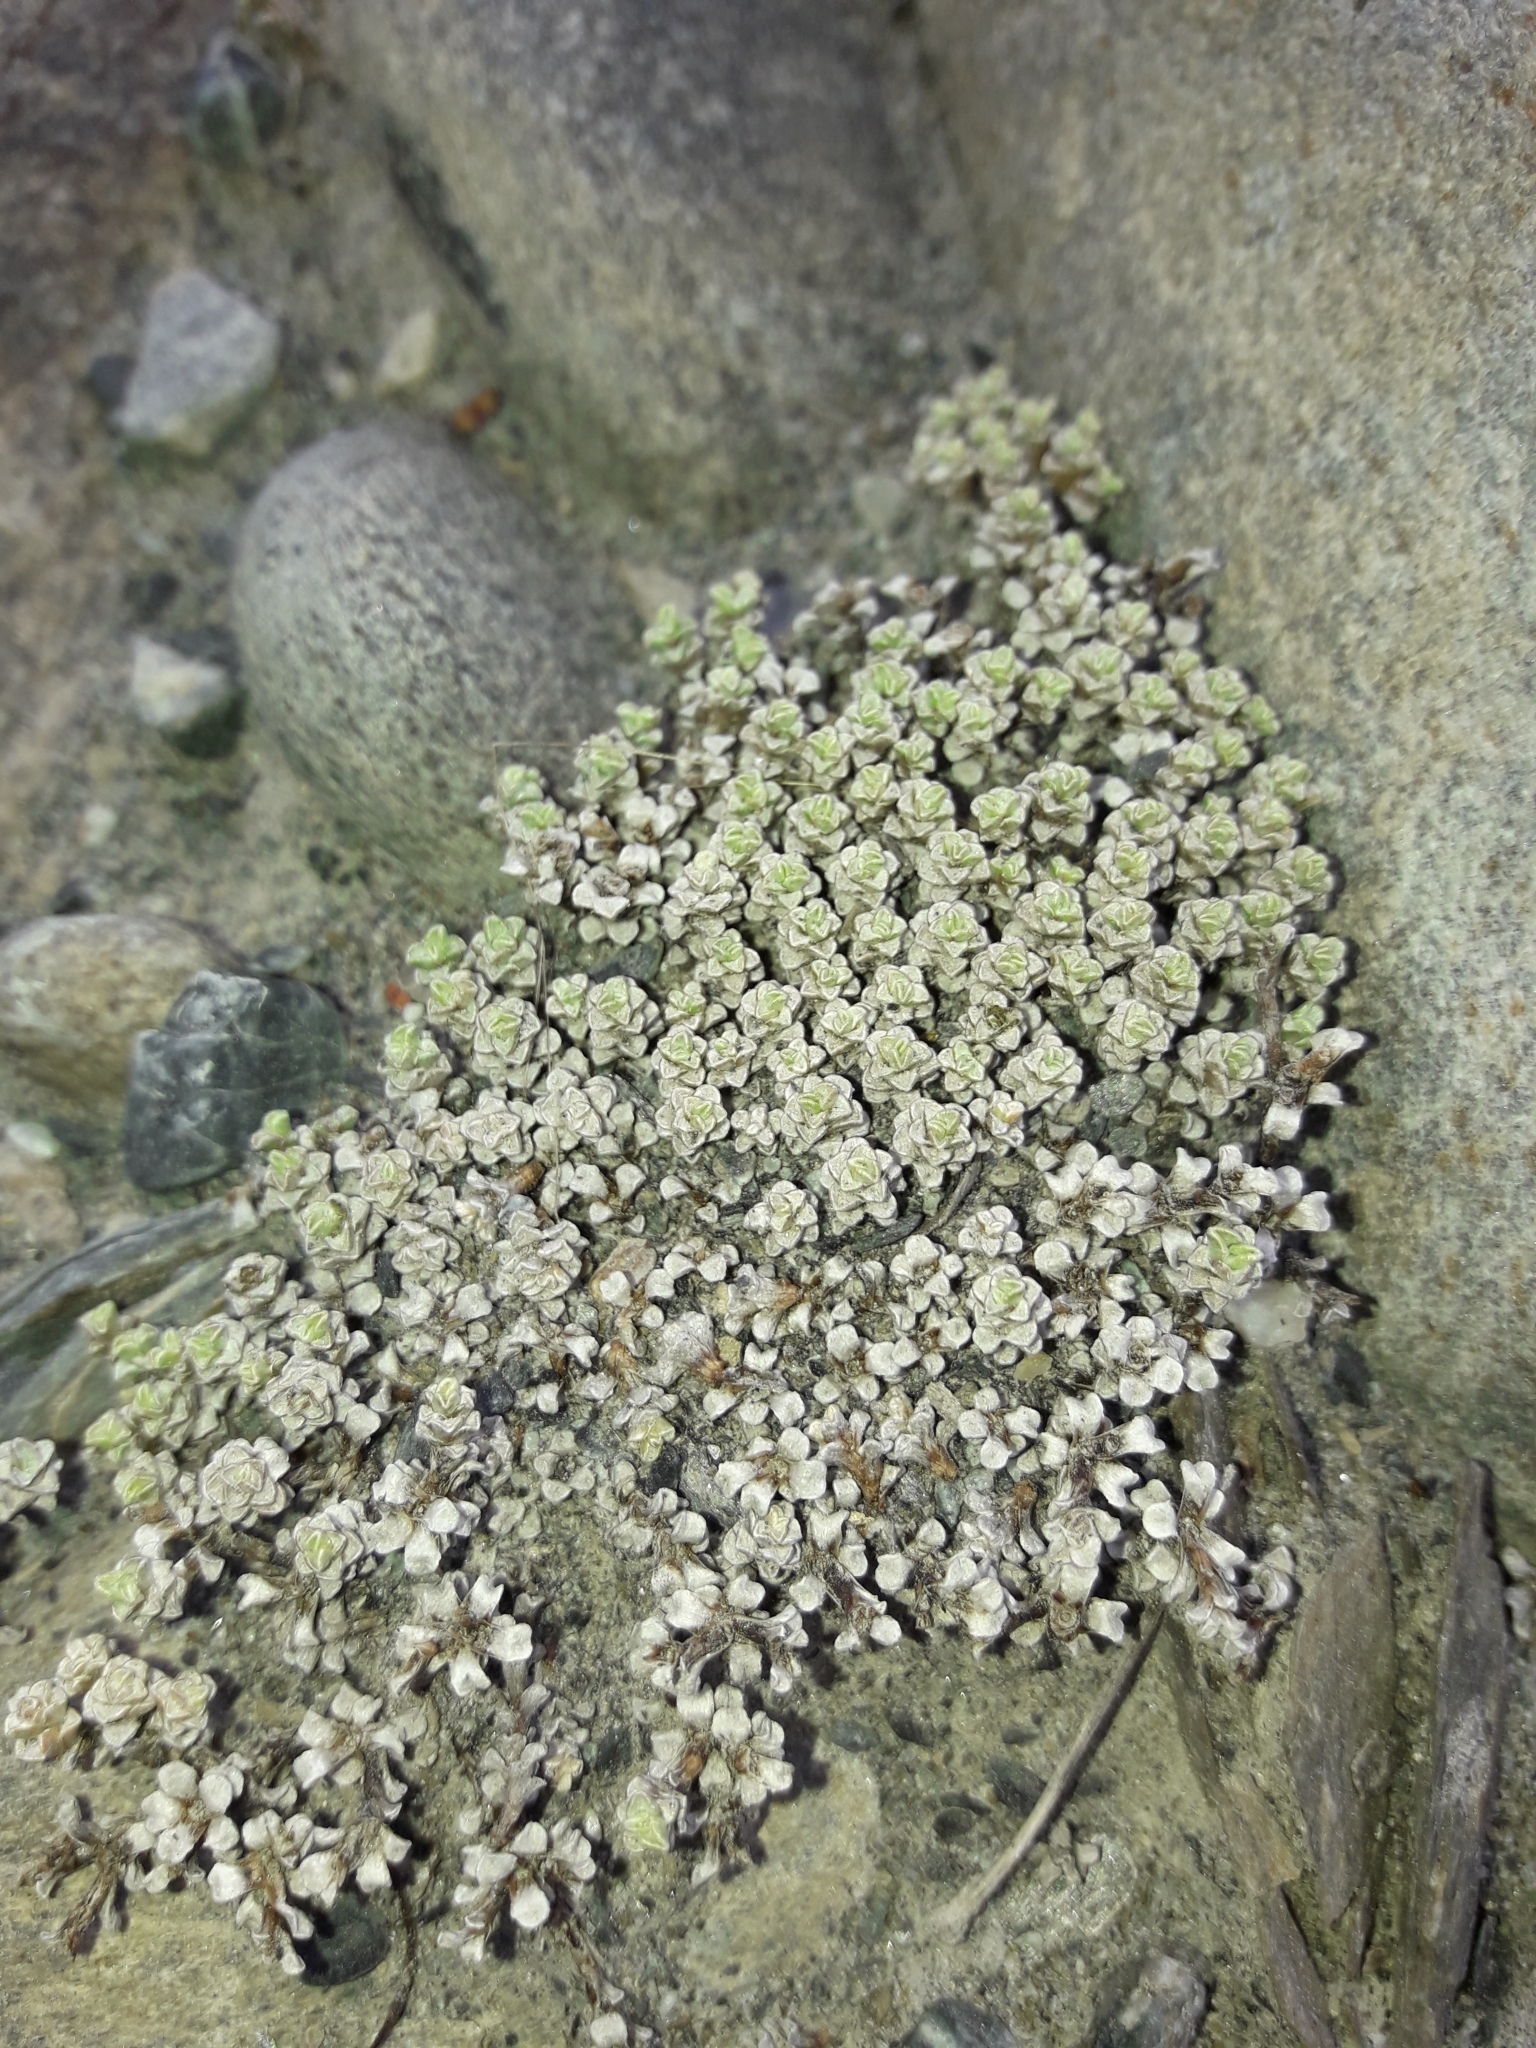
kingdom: Plantae
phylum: Tracheophyta
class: Magnoliopsida
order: Asterales
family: Asteraceae
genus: Raoulia
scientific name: Raoulia parkii
